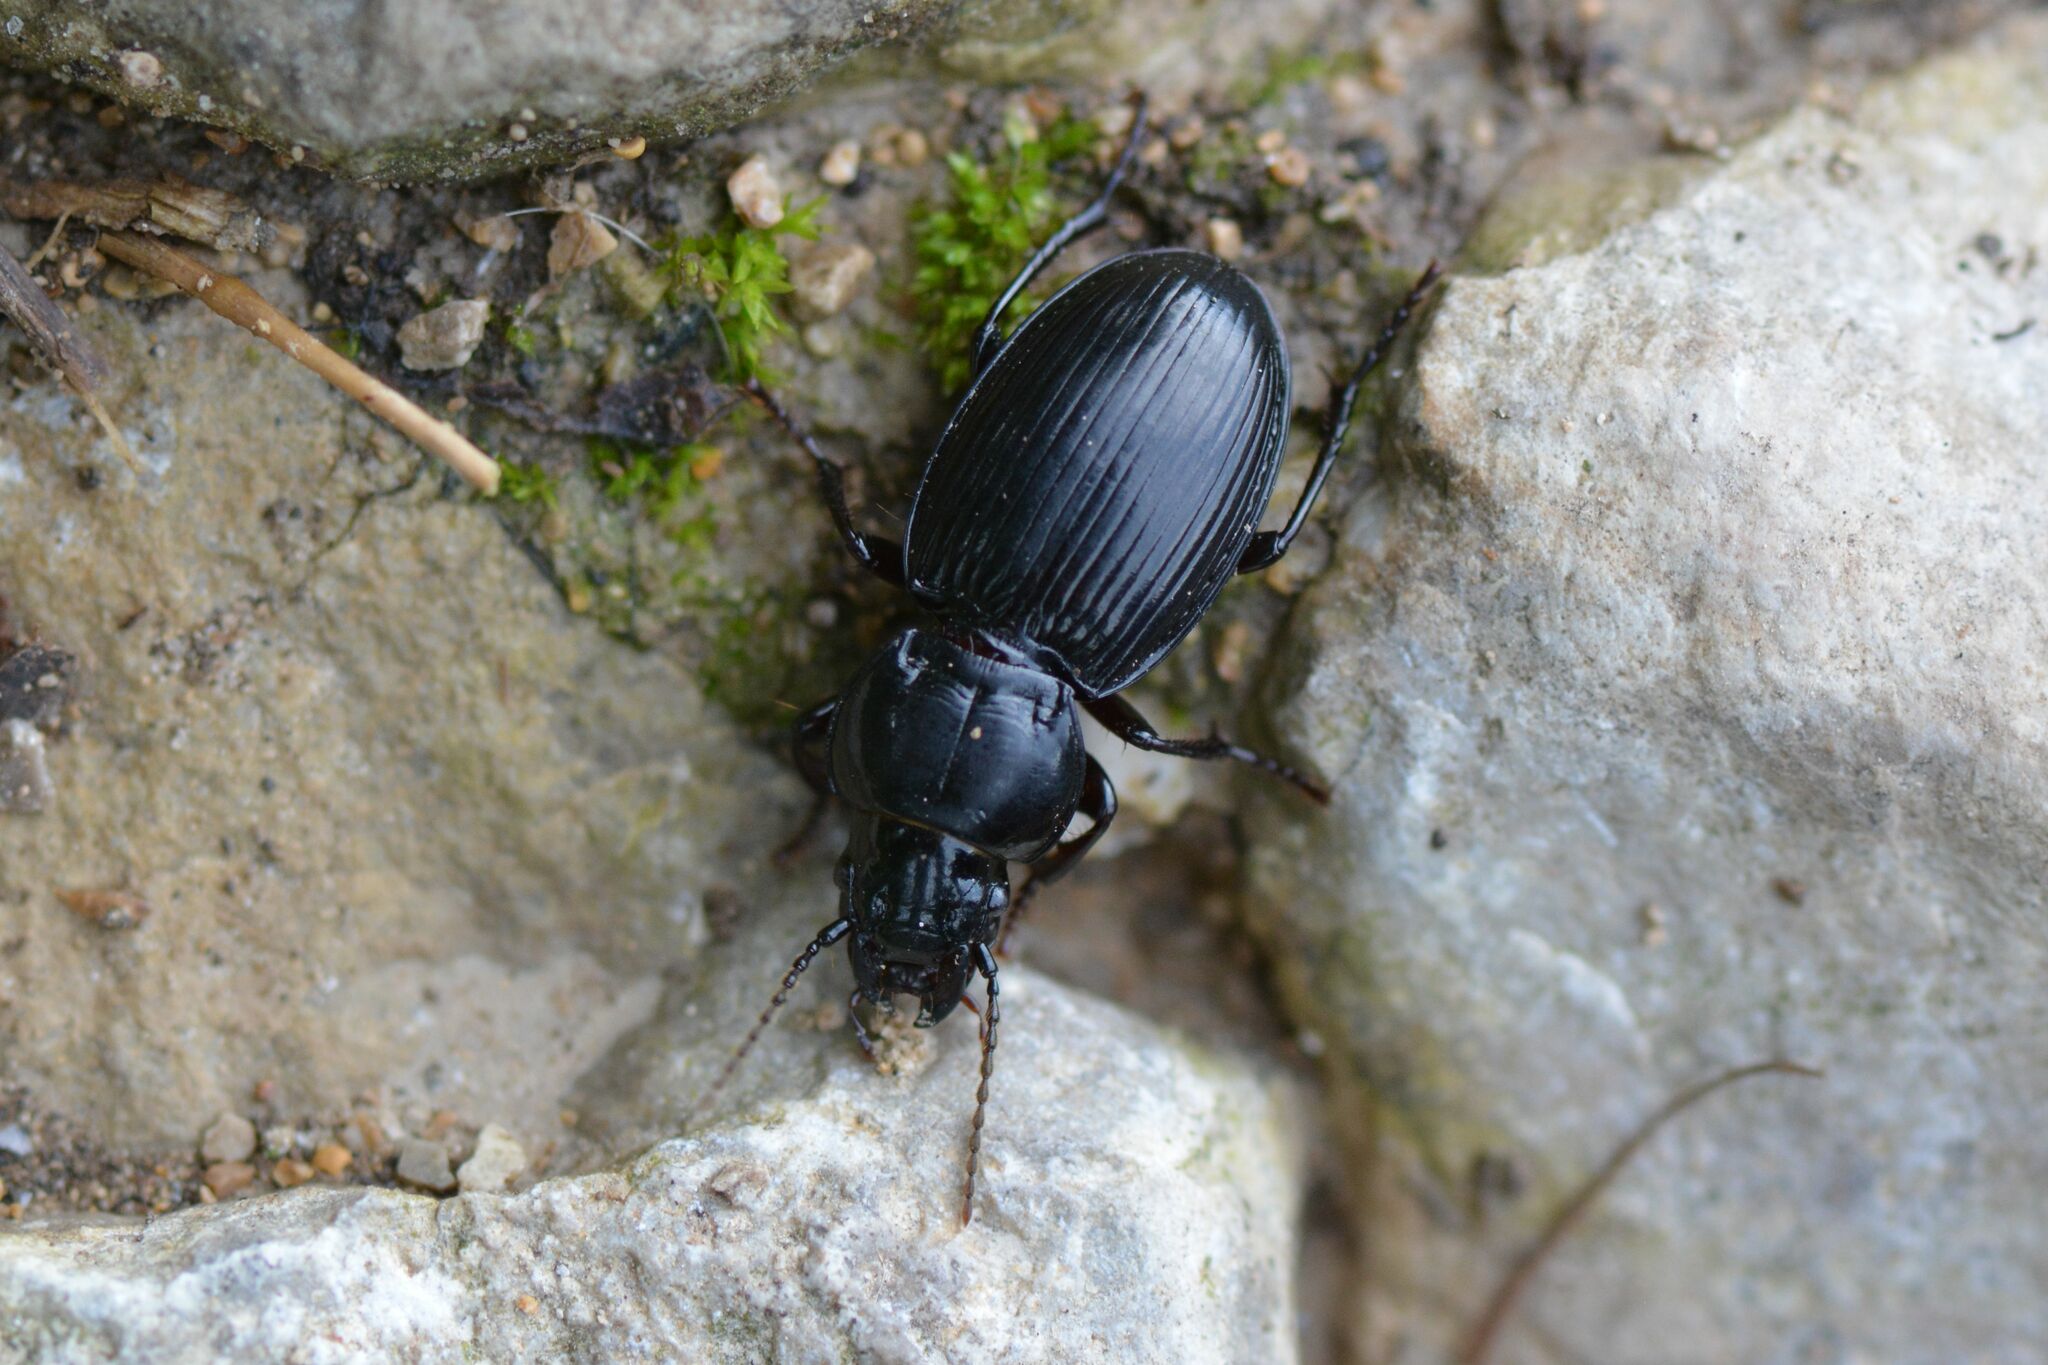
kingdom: Animalia
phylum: Arthropoda
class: Insecta
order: Coleoptera
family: Carabidae
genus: Molops
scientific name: Molops elatus
